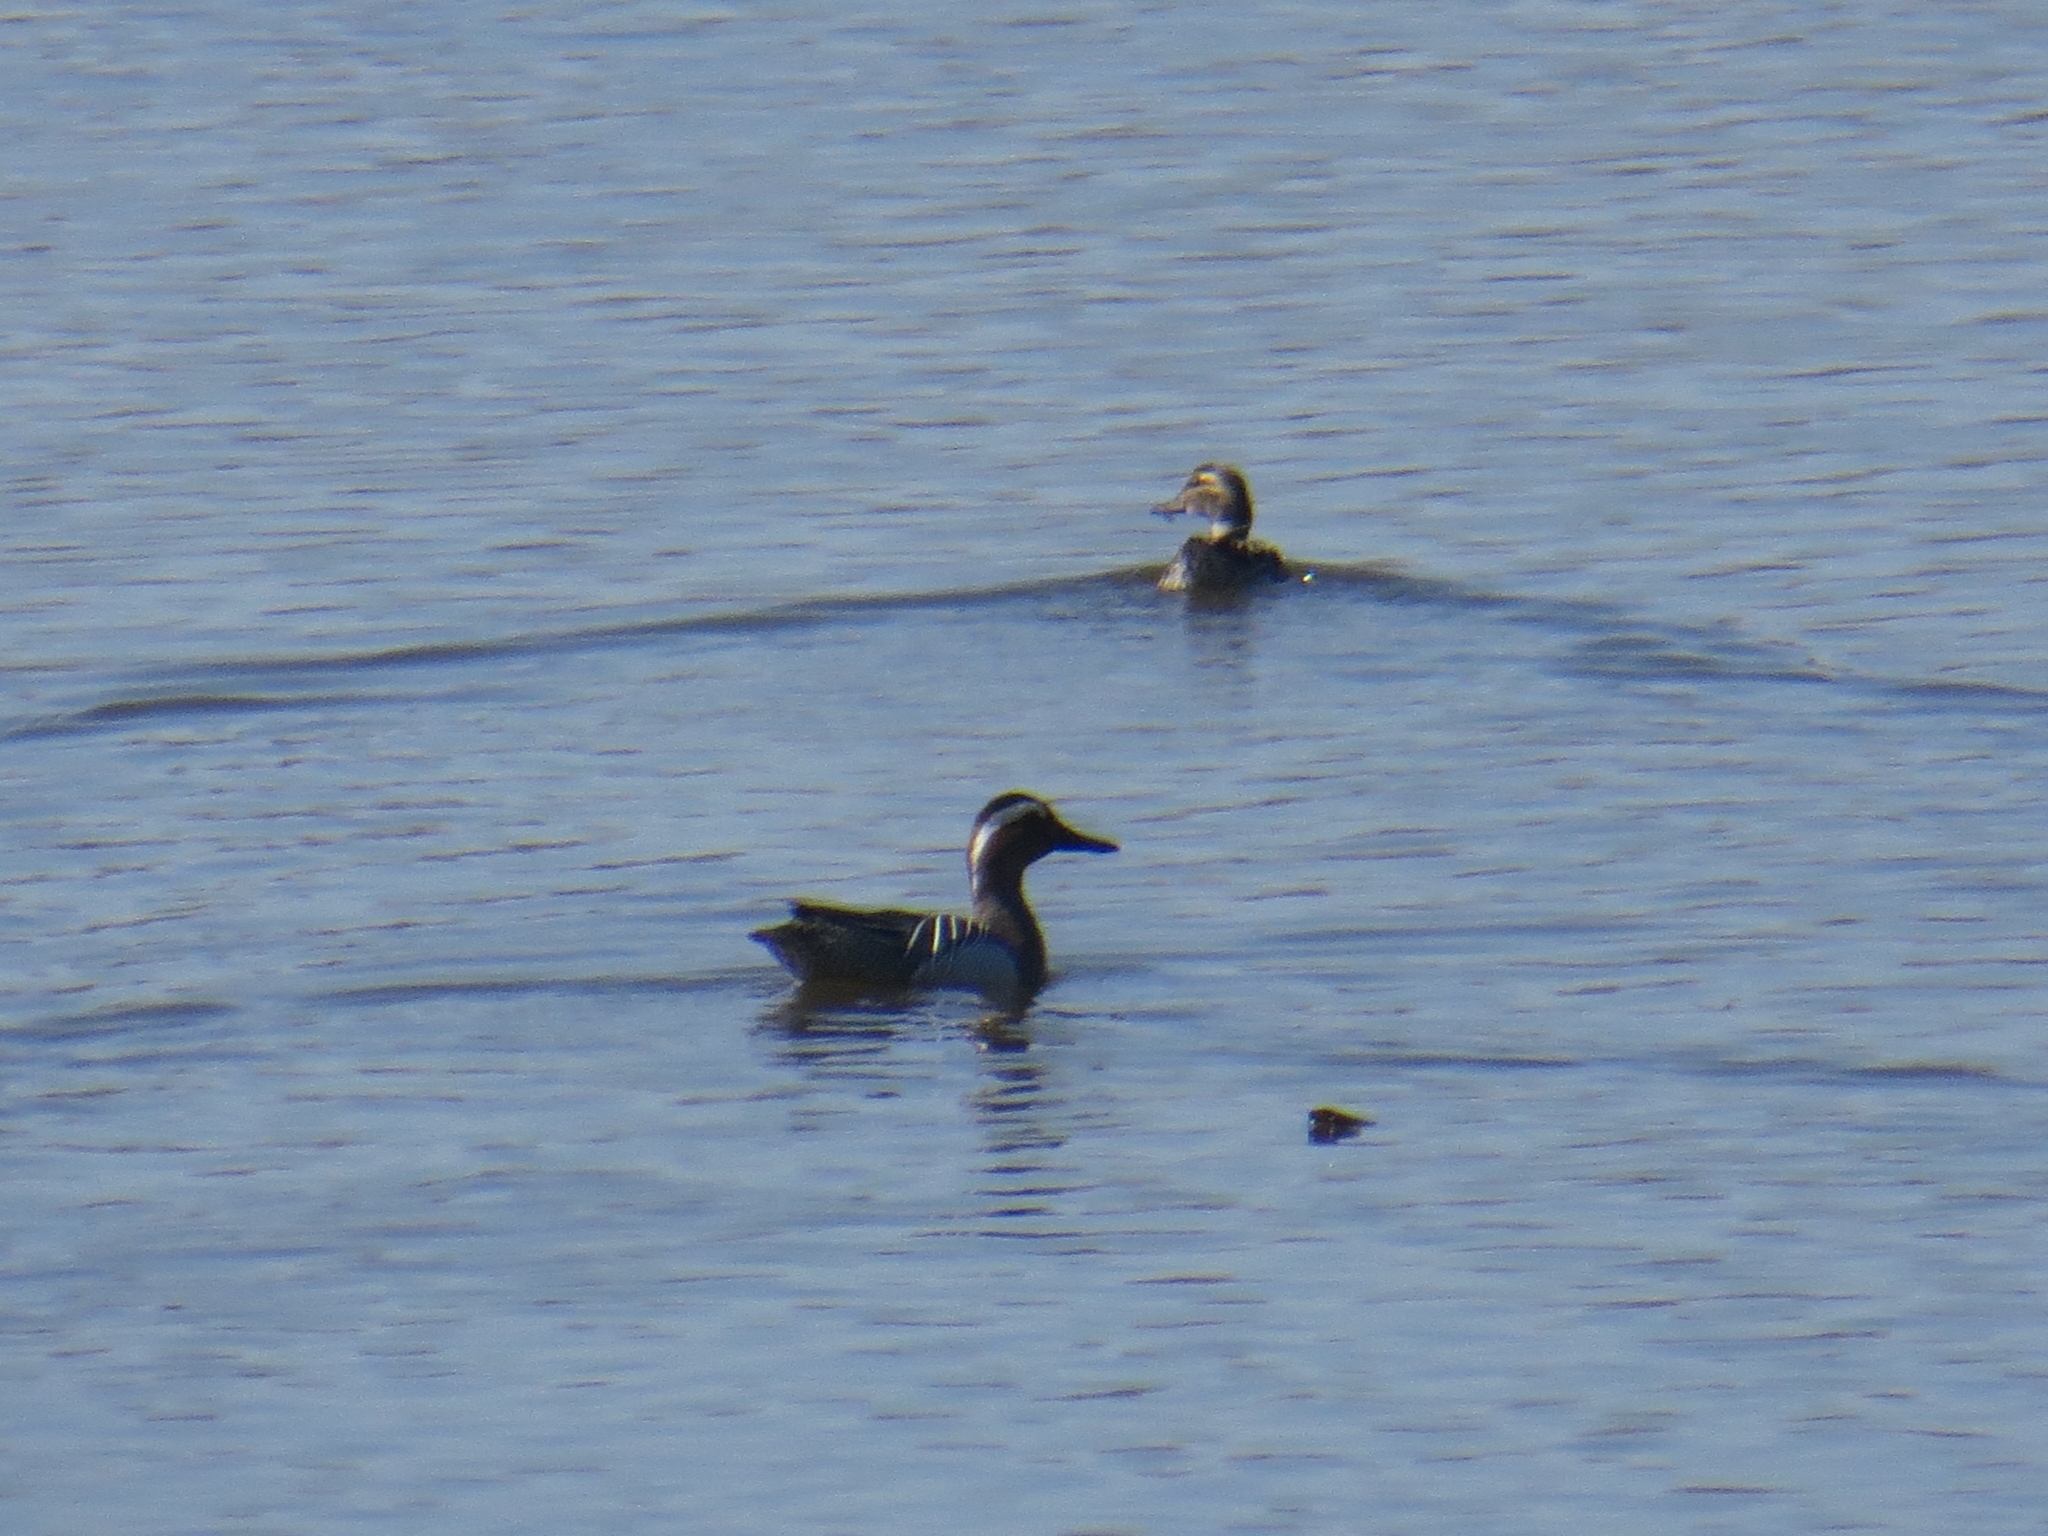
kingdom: Animalia
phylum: Chordata
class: Aves
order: Anseriformes
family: Anatidae
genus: Spatula
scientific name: Spatula querquedula
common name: Garganey
